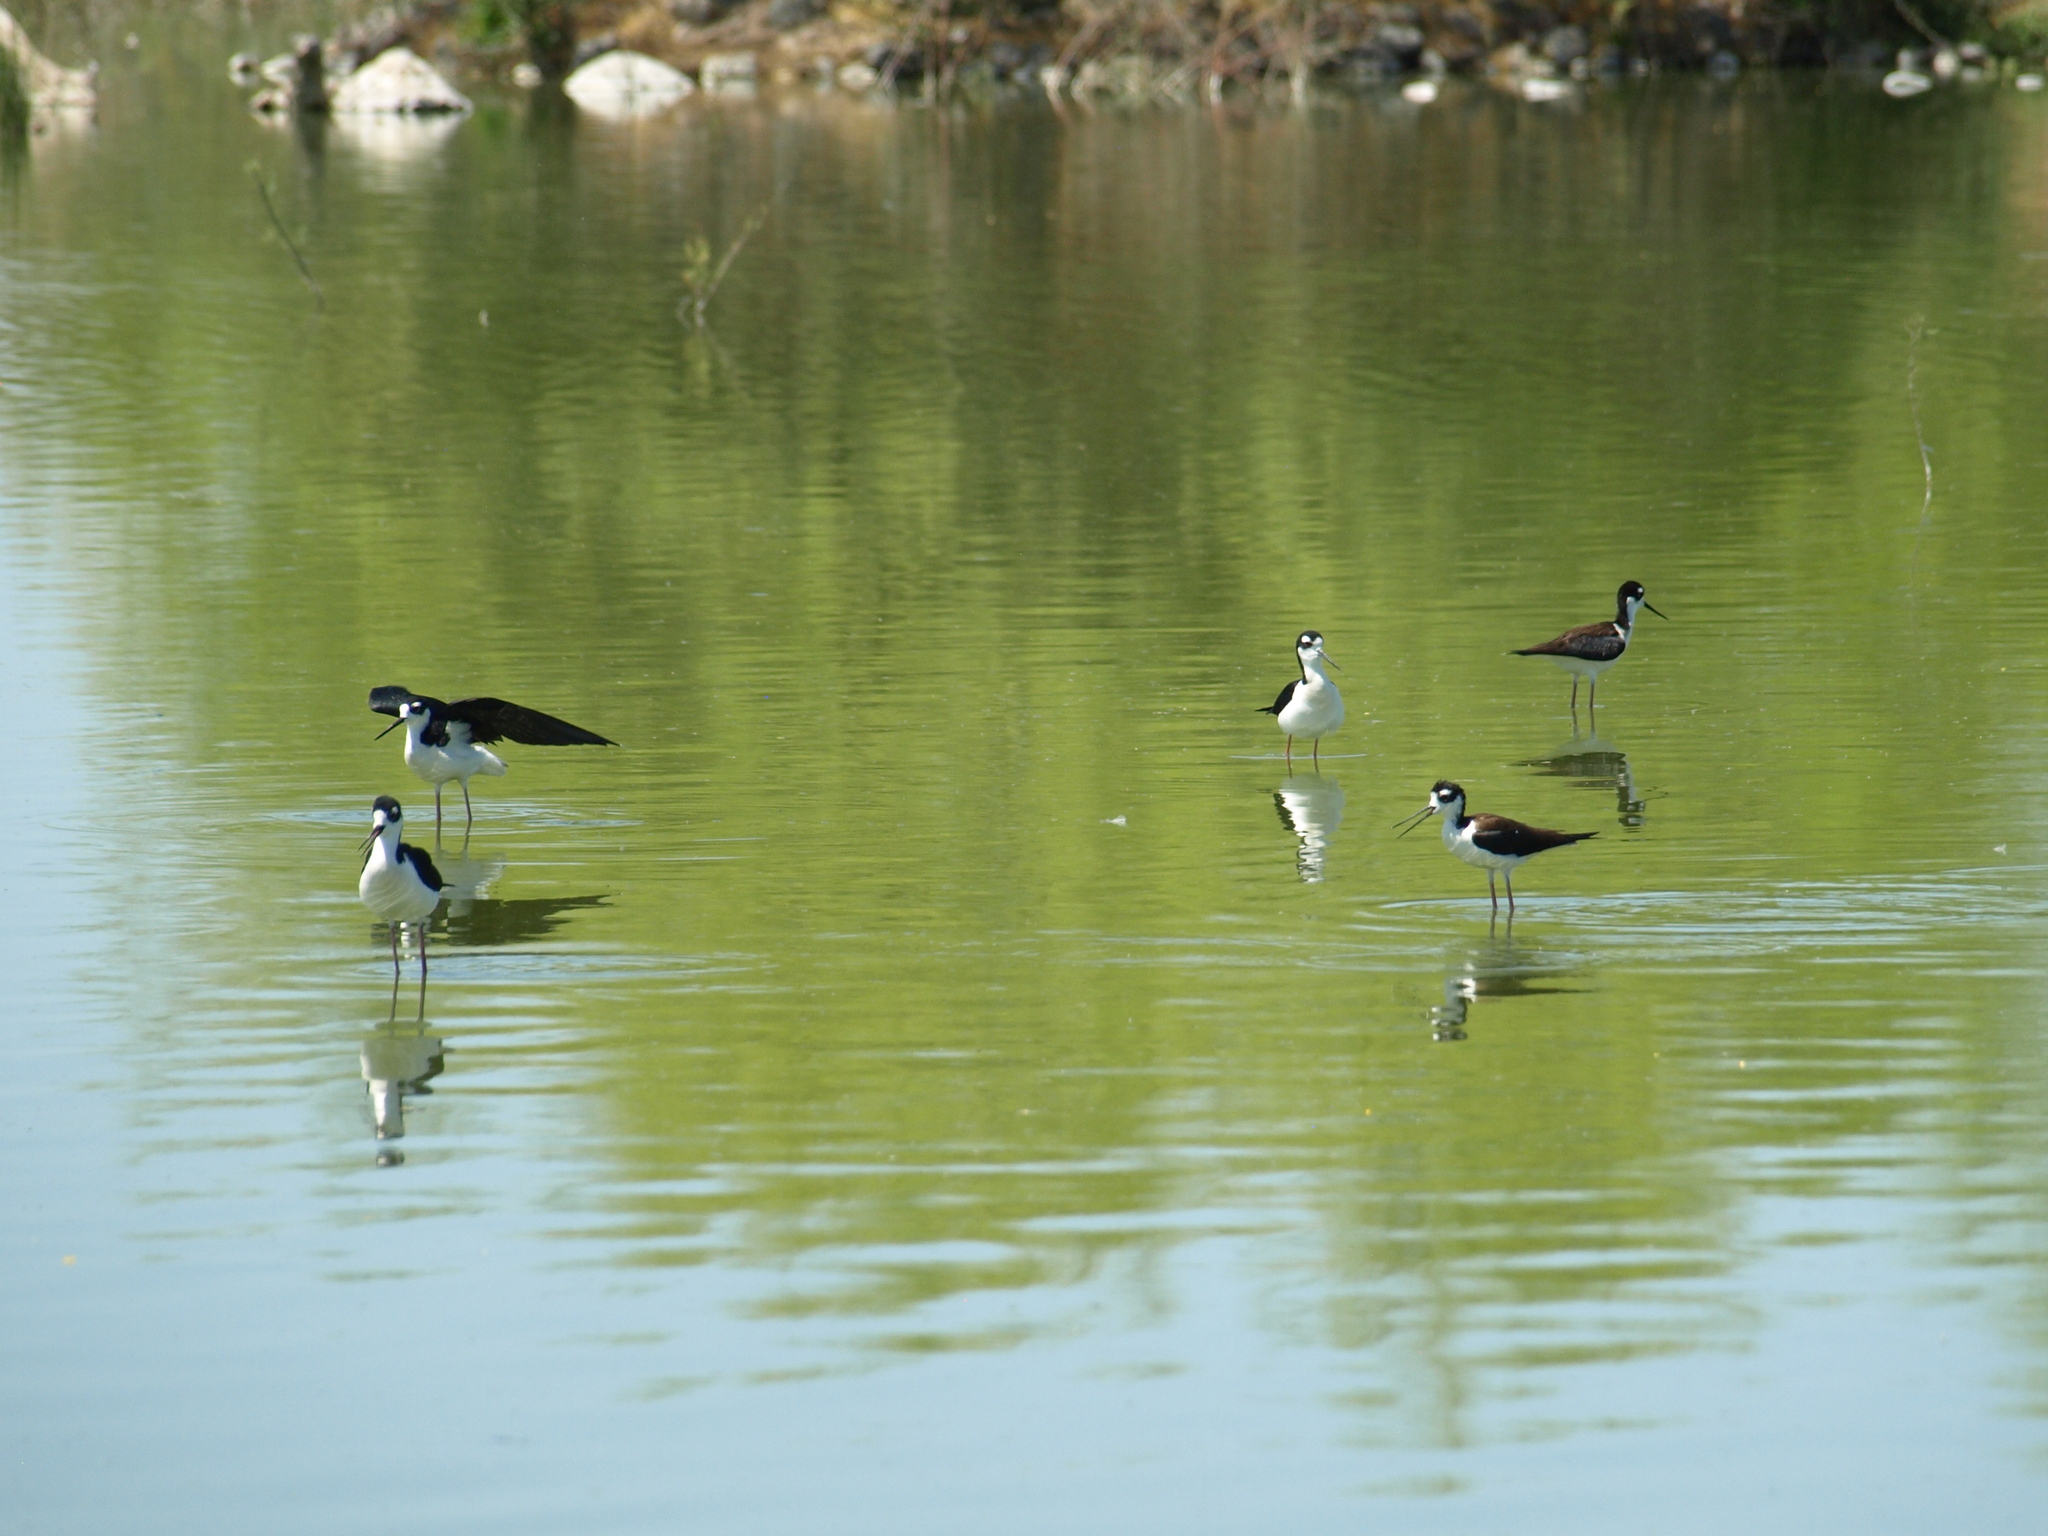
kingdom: Animalia
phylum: Chordata
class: Aves
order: Charadriiformes
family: Recurvirostridae
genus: Himantopus
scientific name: Himantopus mexicanus
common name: Black-necked stilt
